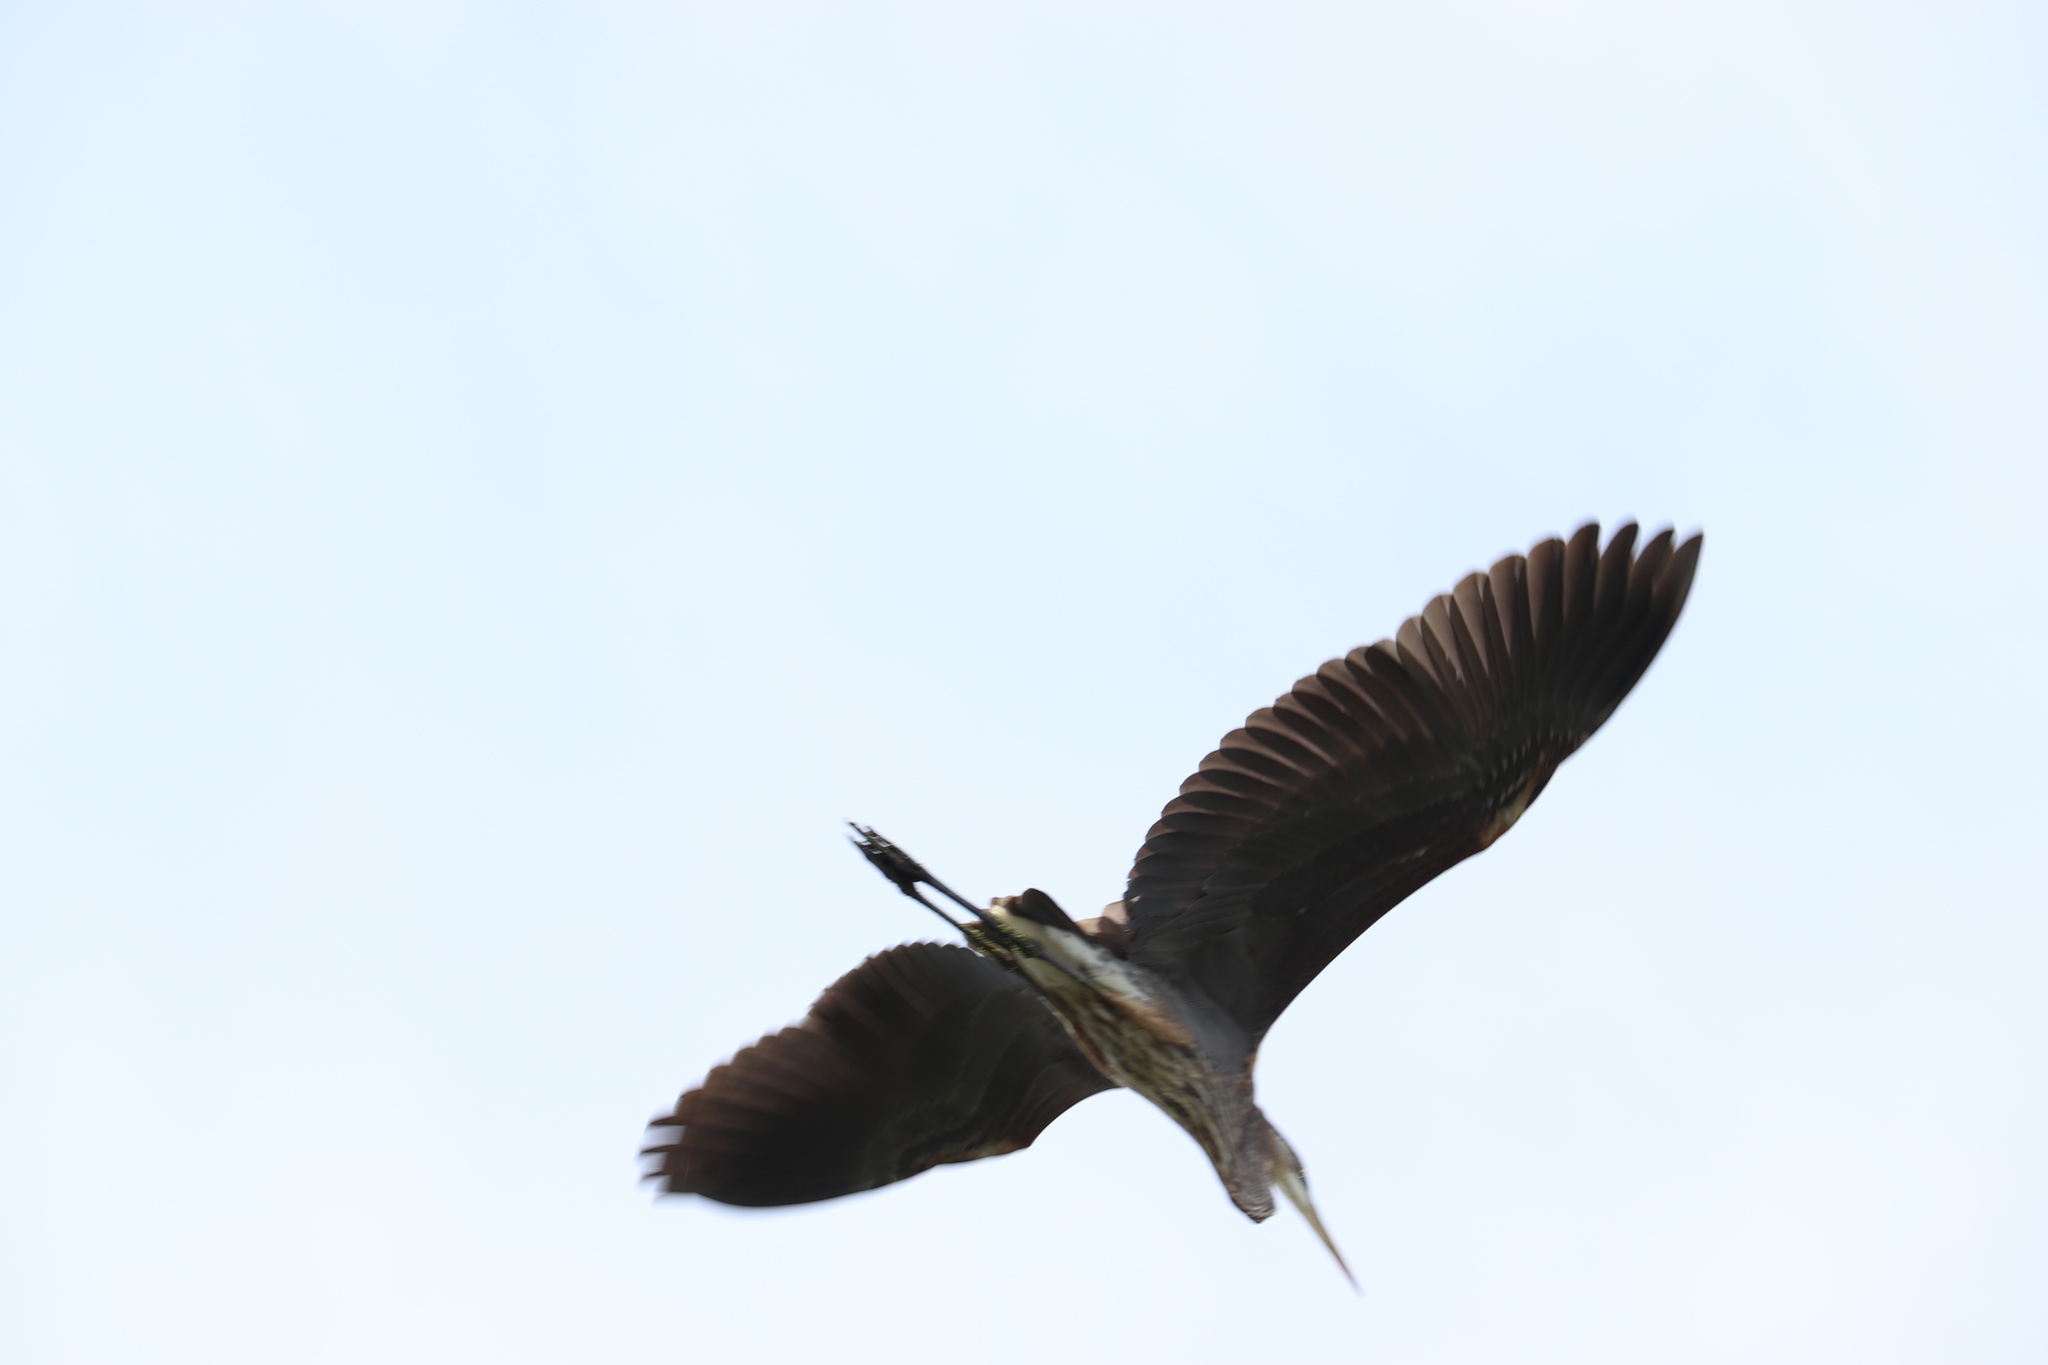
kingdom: Animalia
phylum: Chordata
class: Aves
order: Pelecaniformes
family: Ardeidae
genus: Ardea
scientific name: Ardea herodias
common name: Great blue heron
